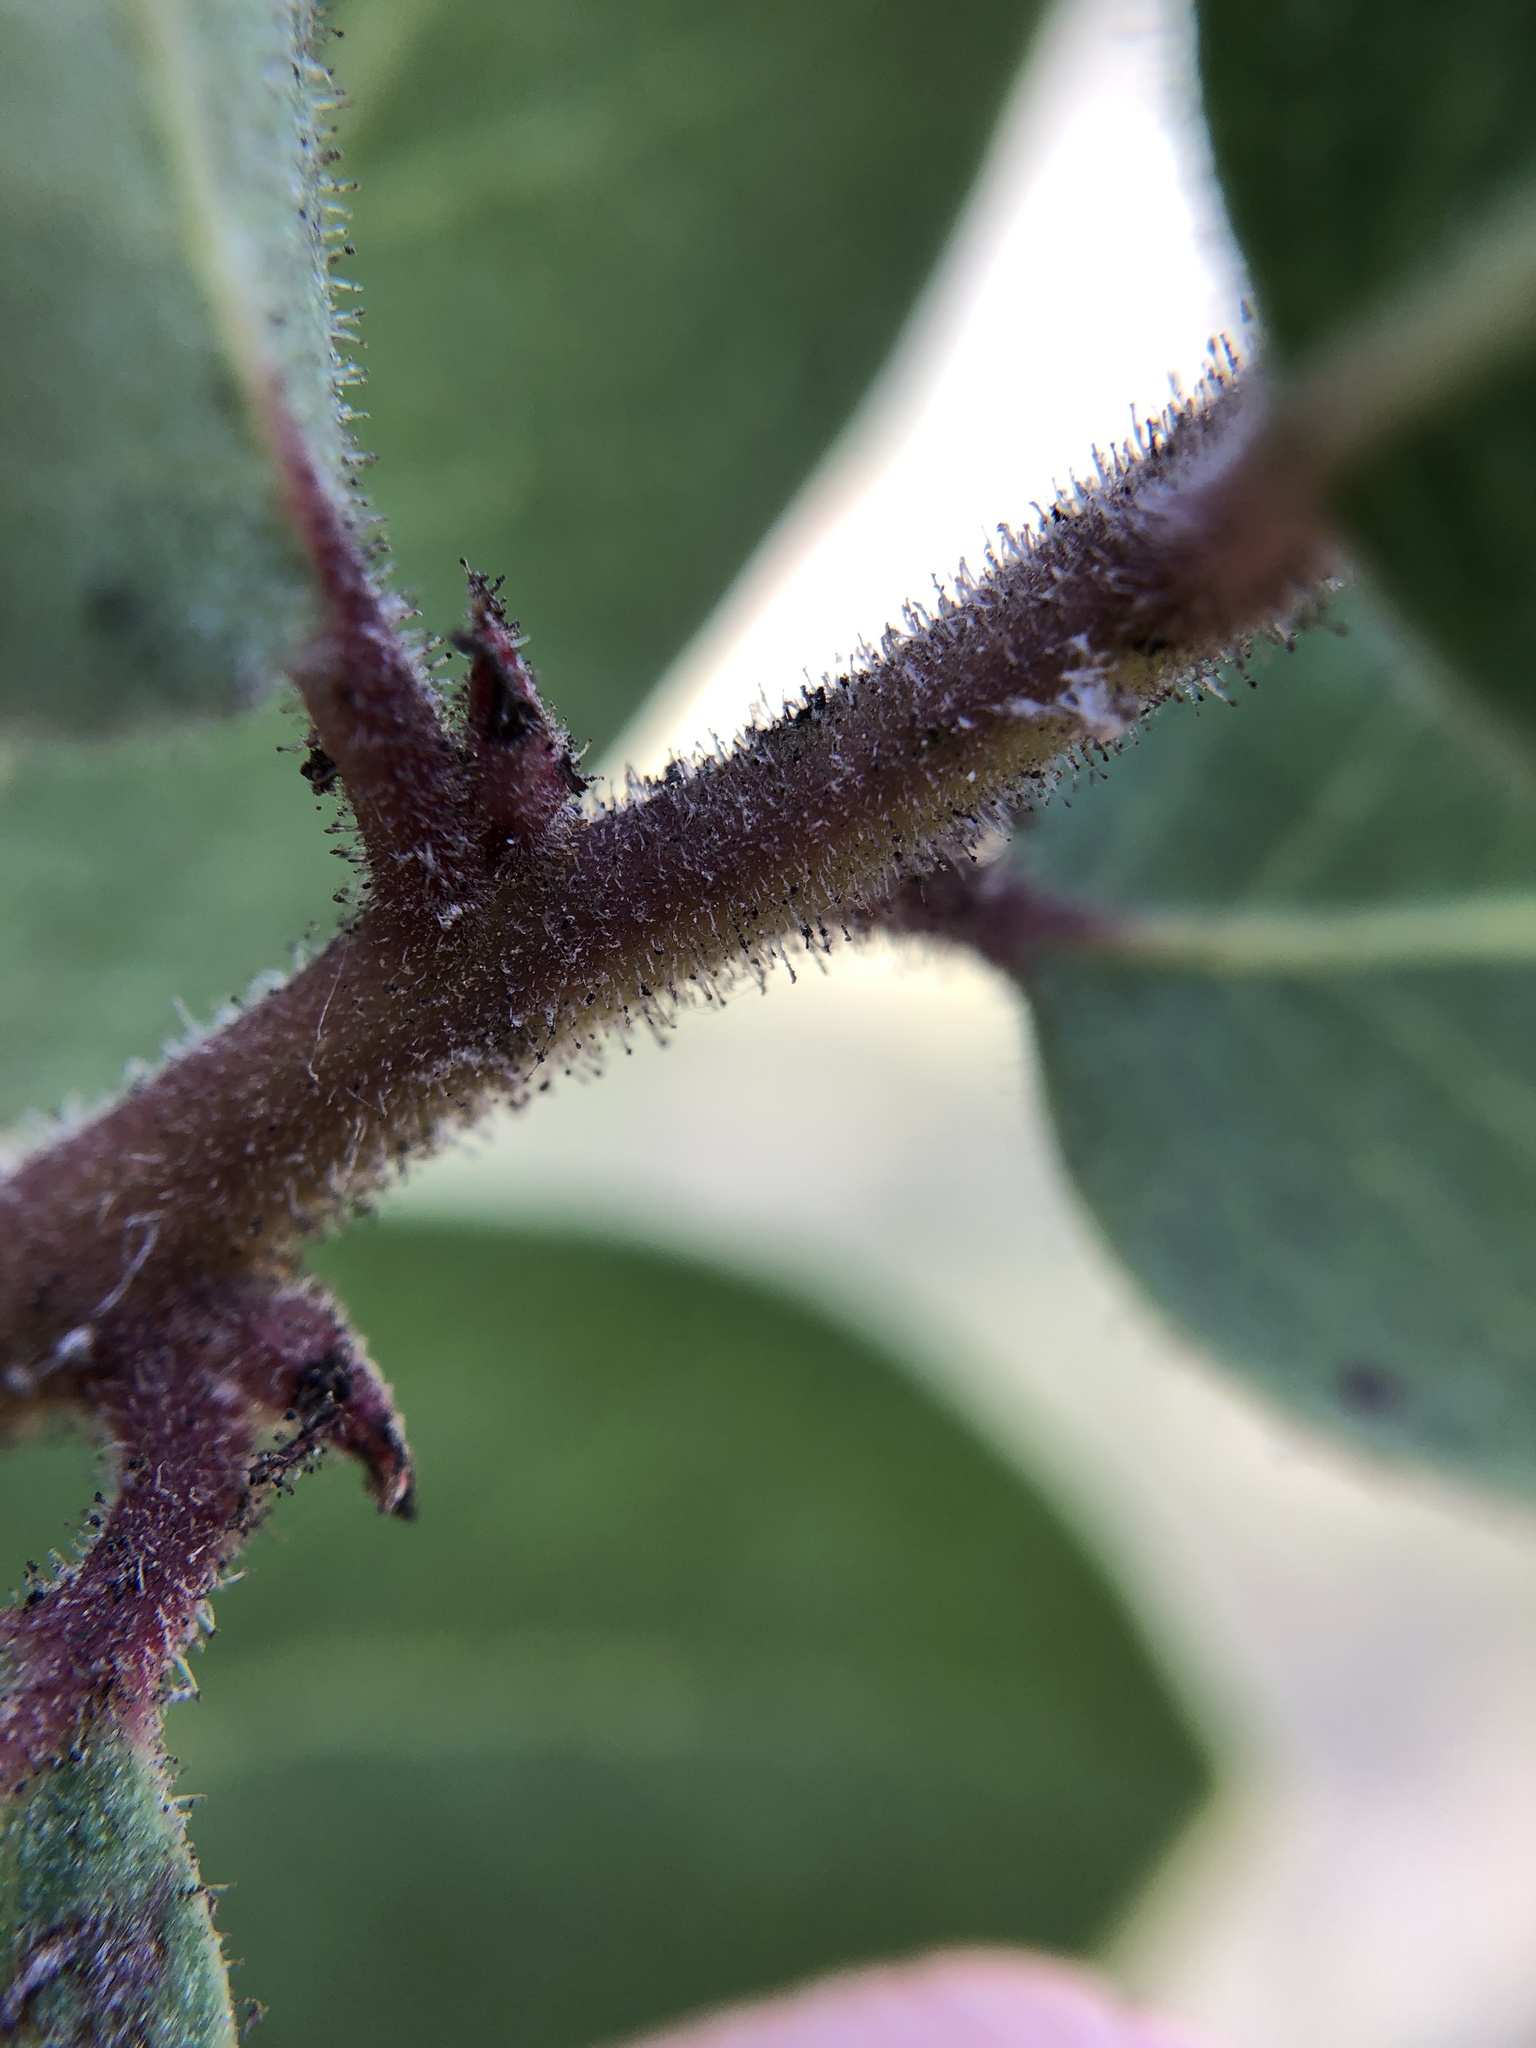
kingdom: Plantae
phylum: Tracheophyta
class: Magnoliopsida
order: Ericales
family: Ericaceae
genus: Arctostaphylos
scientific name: Arctostaphylos montereyensis
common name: Monterey manzanita
